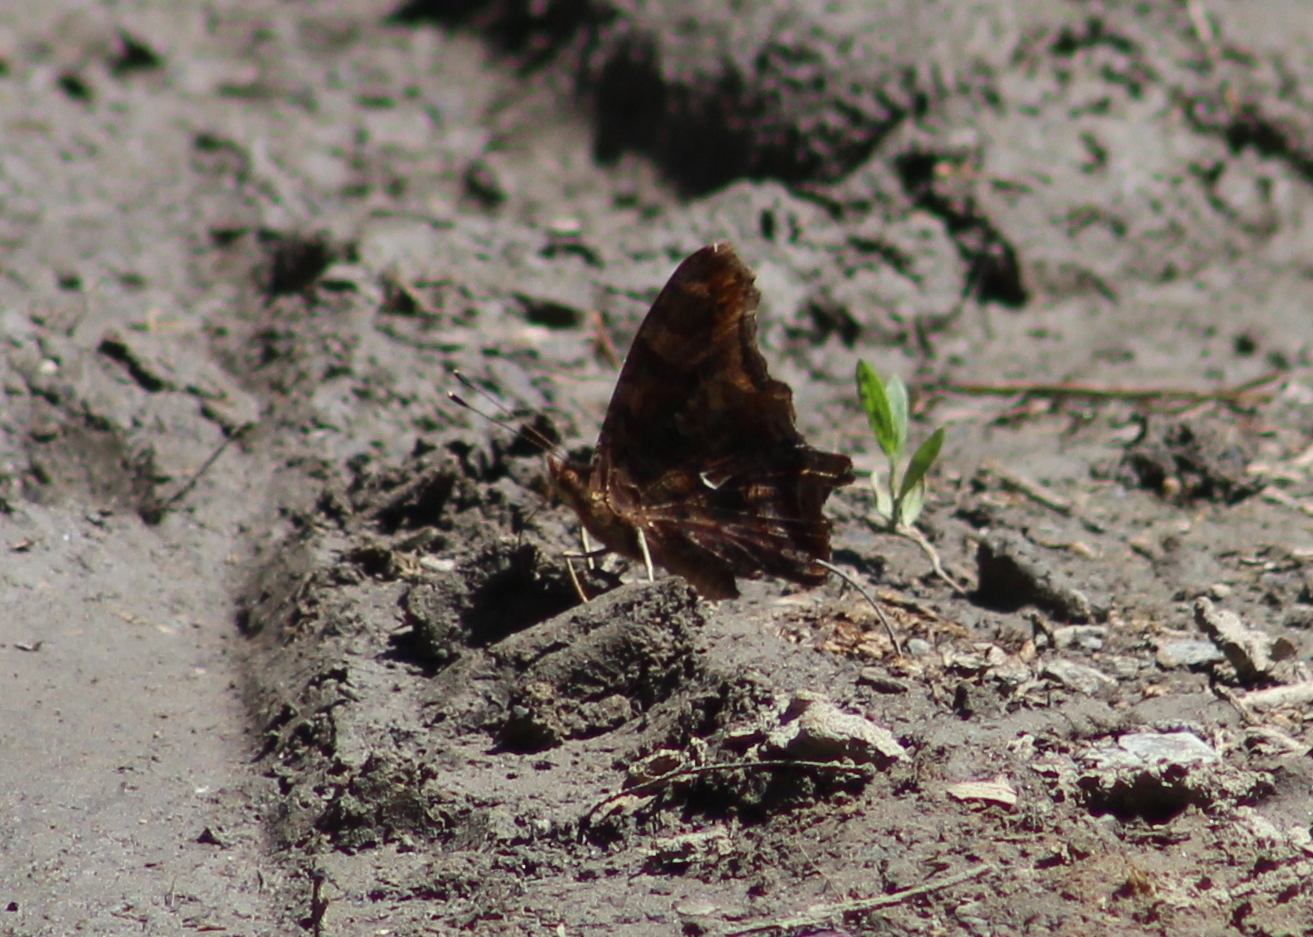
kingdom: Animalia
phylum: Arthropoda
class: Insecta
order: Lepidoptera
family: Nymphalidae
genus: Polygonia
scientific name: Polygonia comma
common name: Eastern comma
